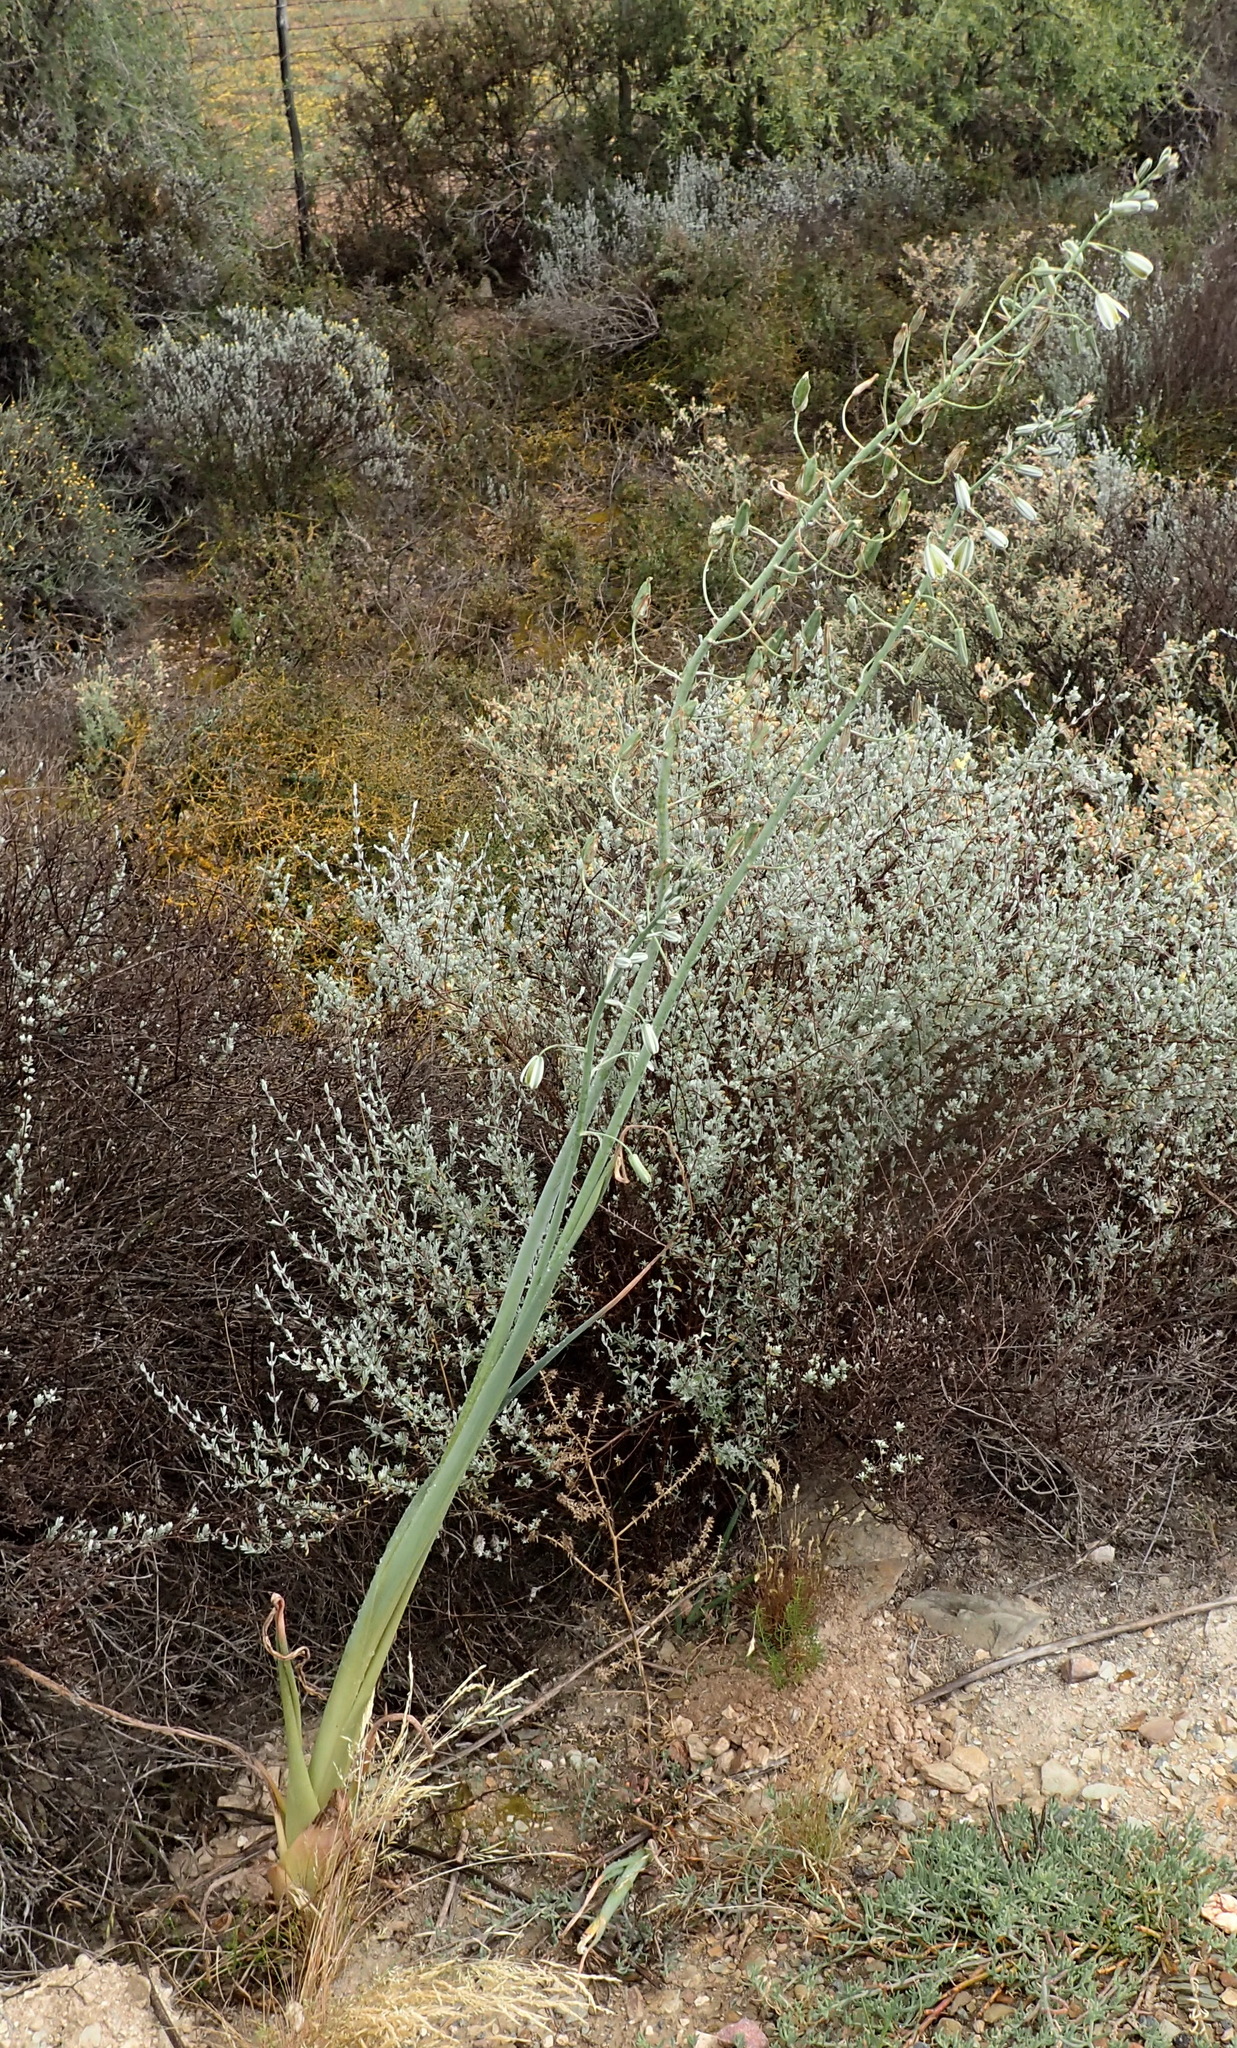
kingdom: Plantae
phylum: Tracheophyta
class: Liliopsida
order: Asparagales
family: Asparagaceae
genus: Albuca
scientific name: Albuca canadensis
